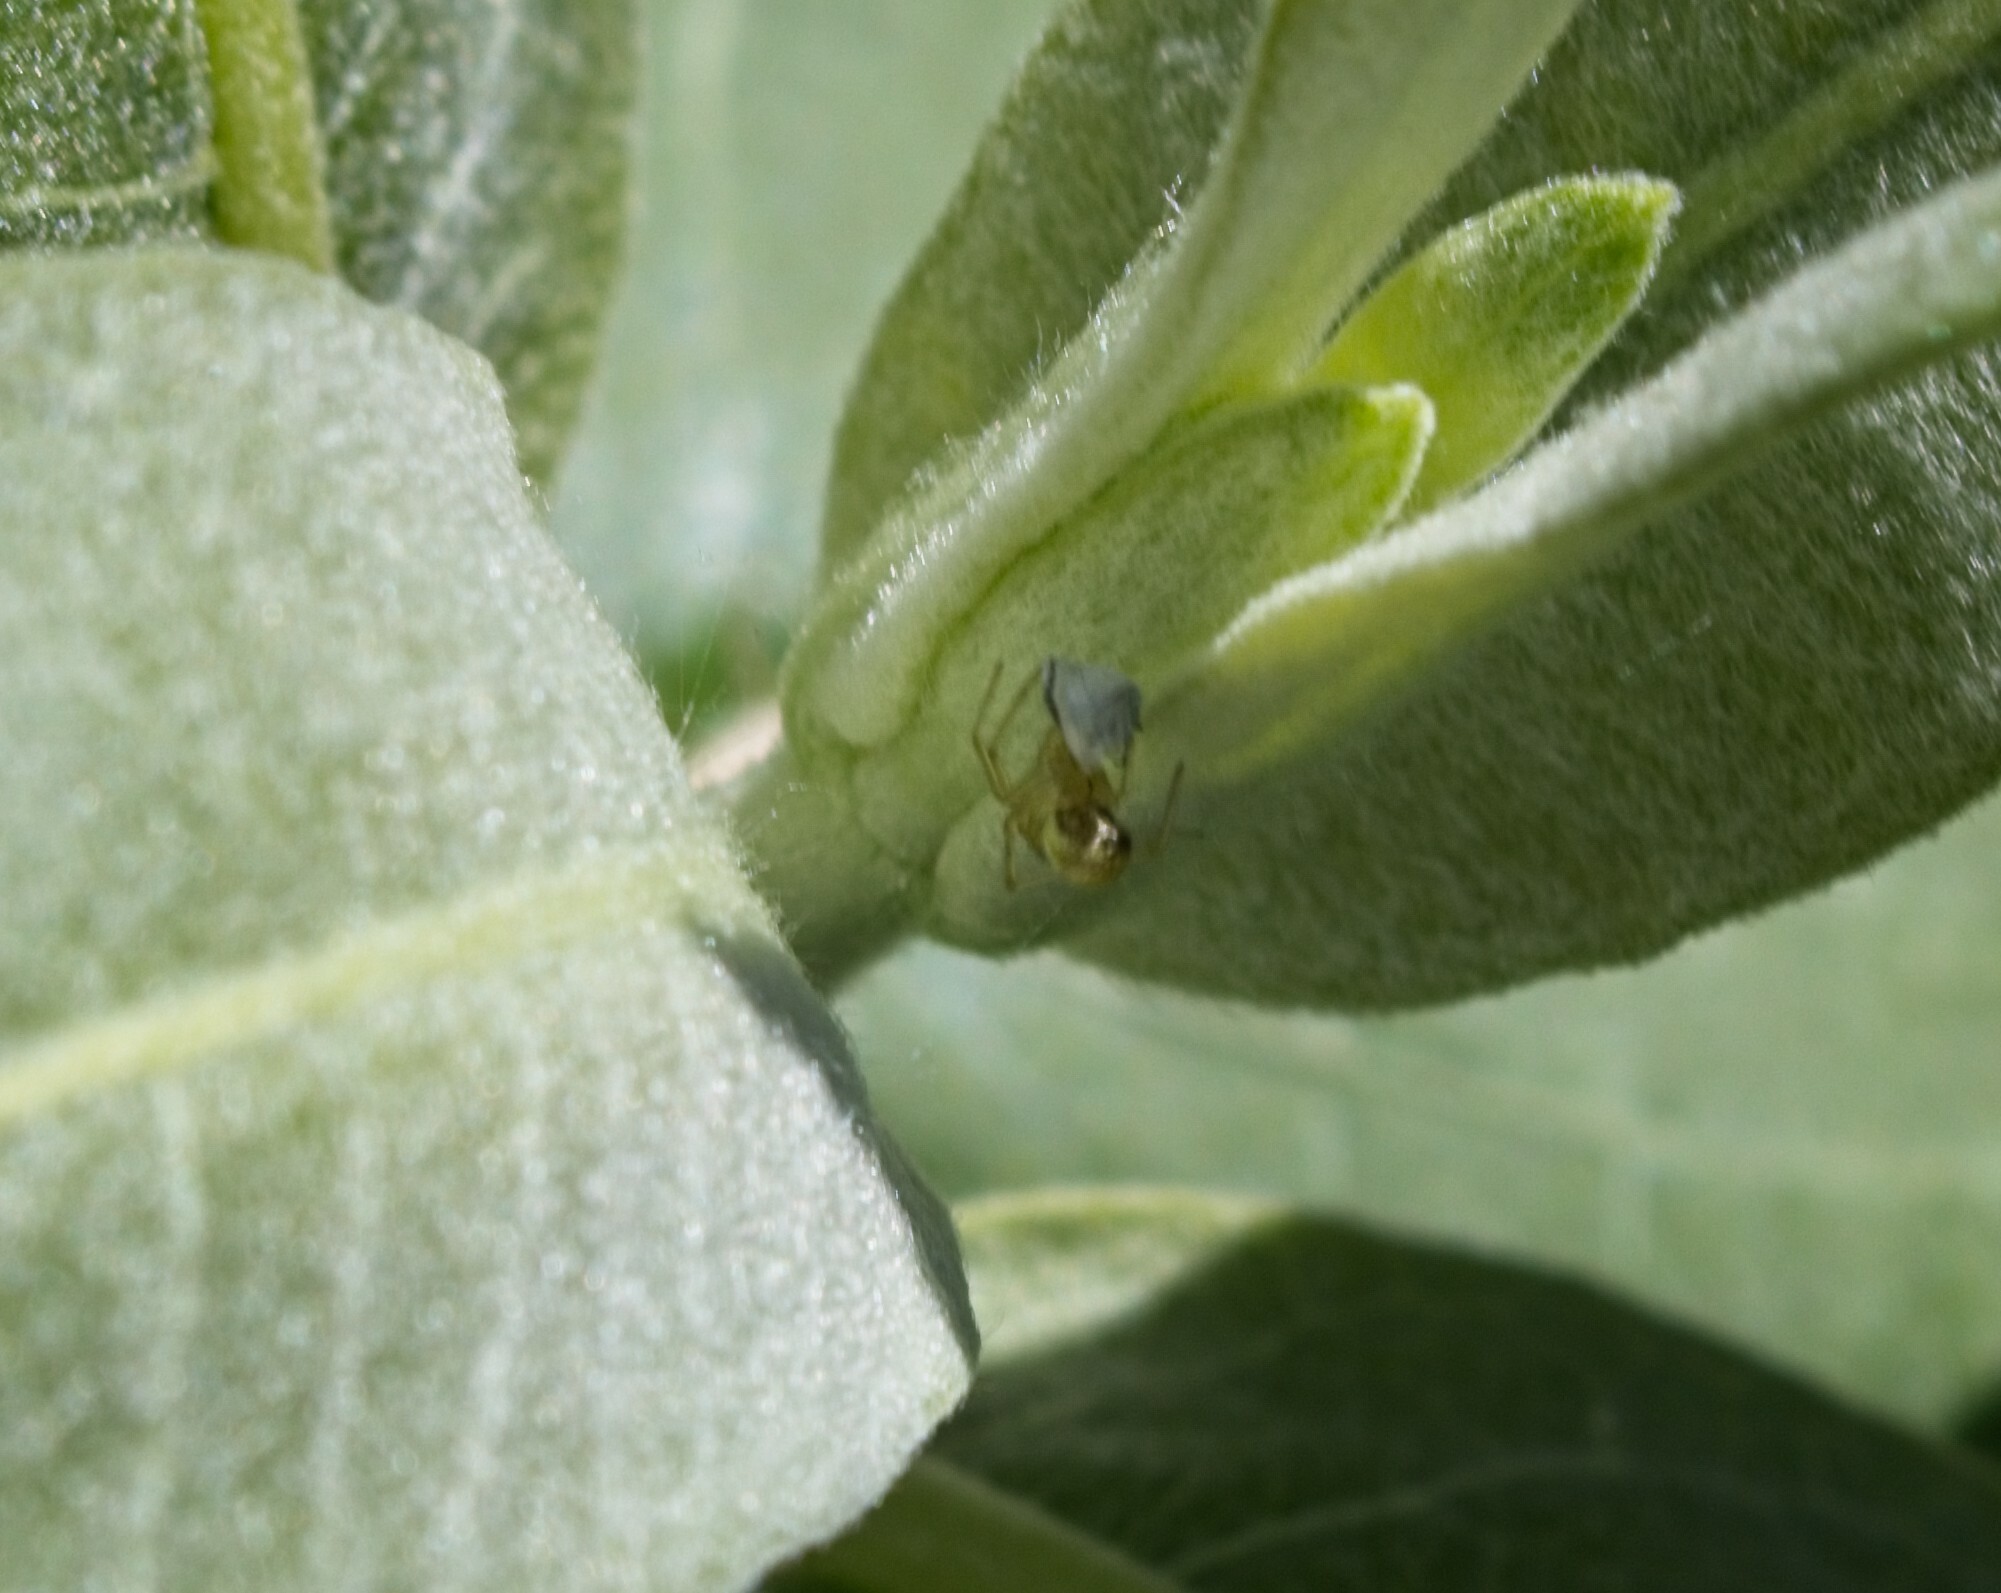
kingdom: Animalia
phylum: Arthropoda
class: Arachnida
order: Araneae
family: Theridiidae
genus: Enoplognatha
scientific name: Enoplognatha ovata
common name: Common candy-striped spider
